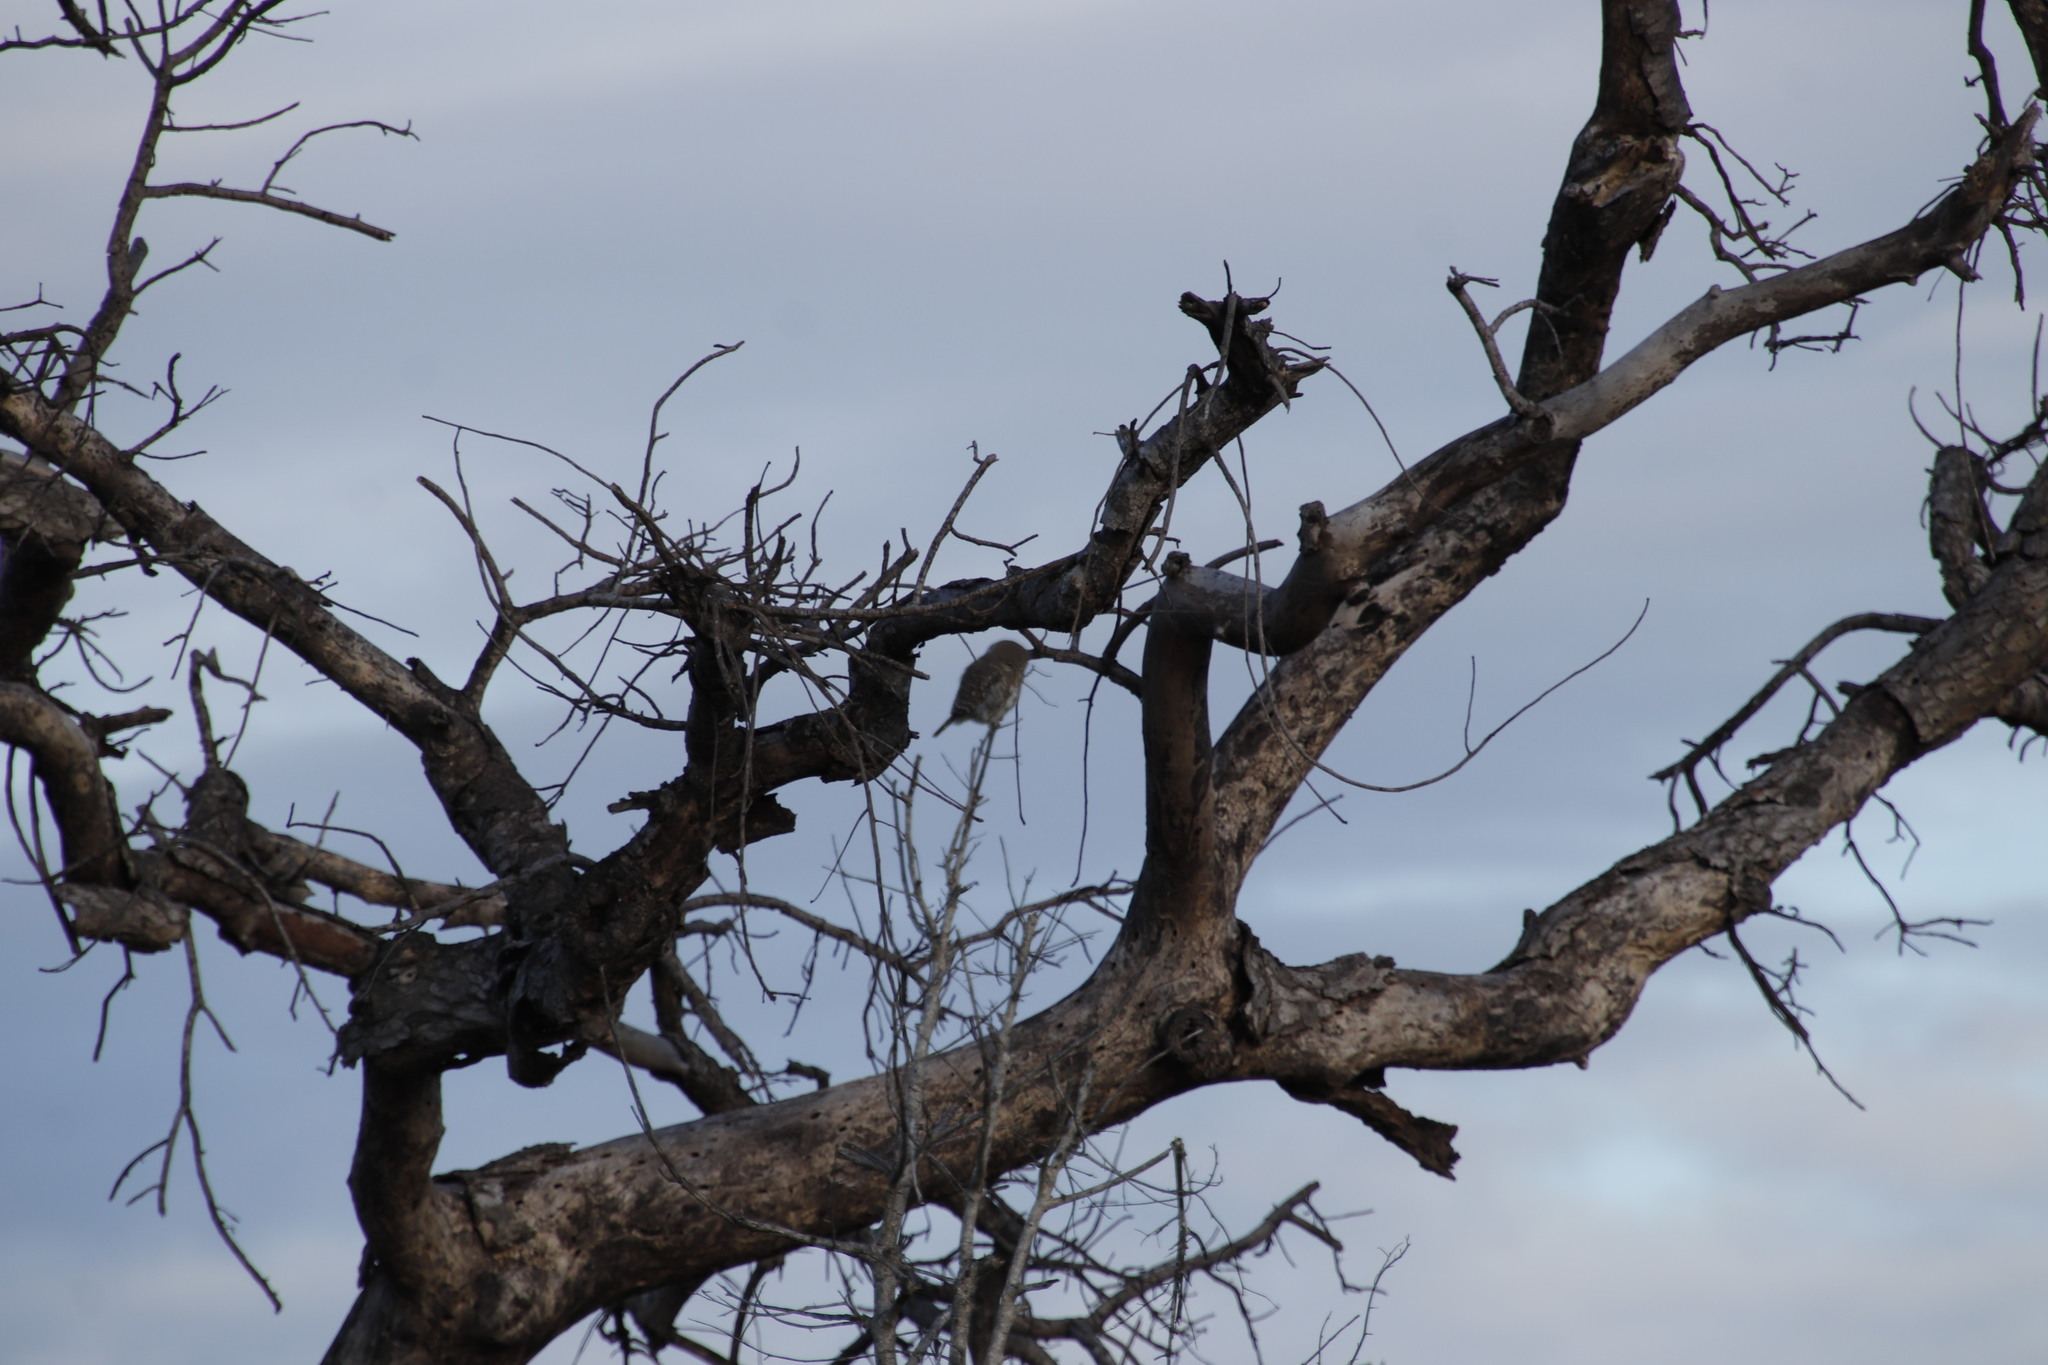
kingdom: Animalia
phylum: Chordata
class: Aves
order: Strigiformes
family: Strigidae
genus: Glaucidium
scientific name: Glaucidium perlatum
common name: Pearl-spotted owlet
